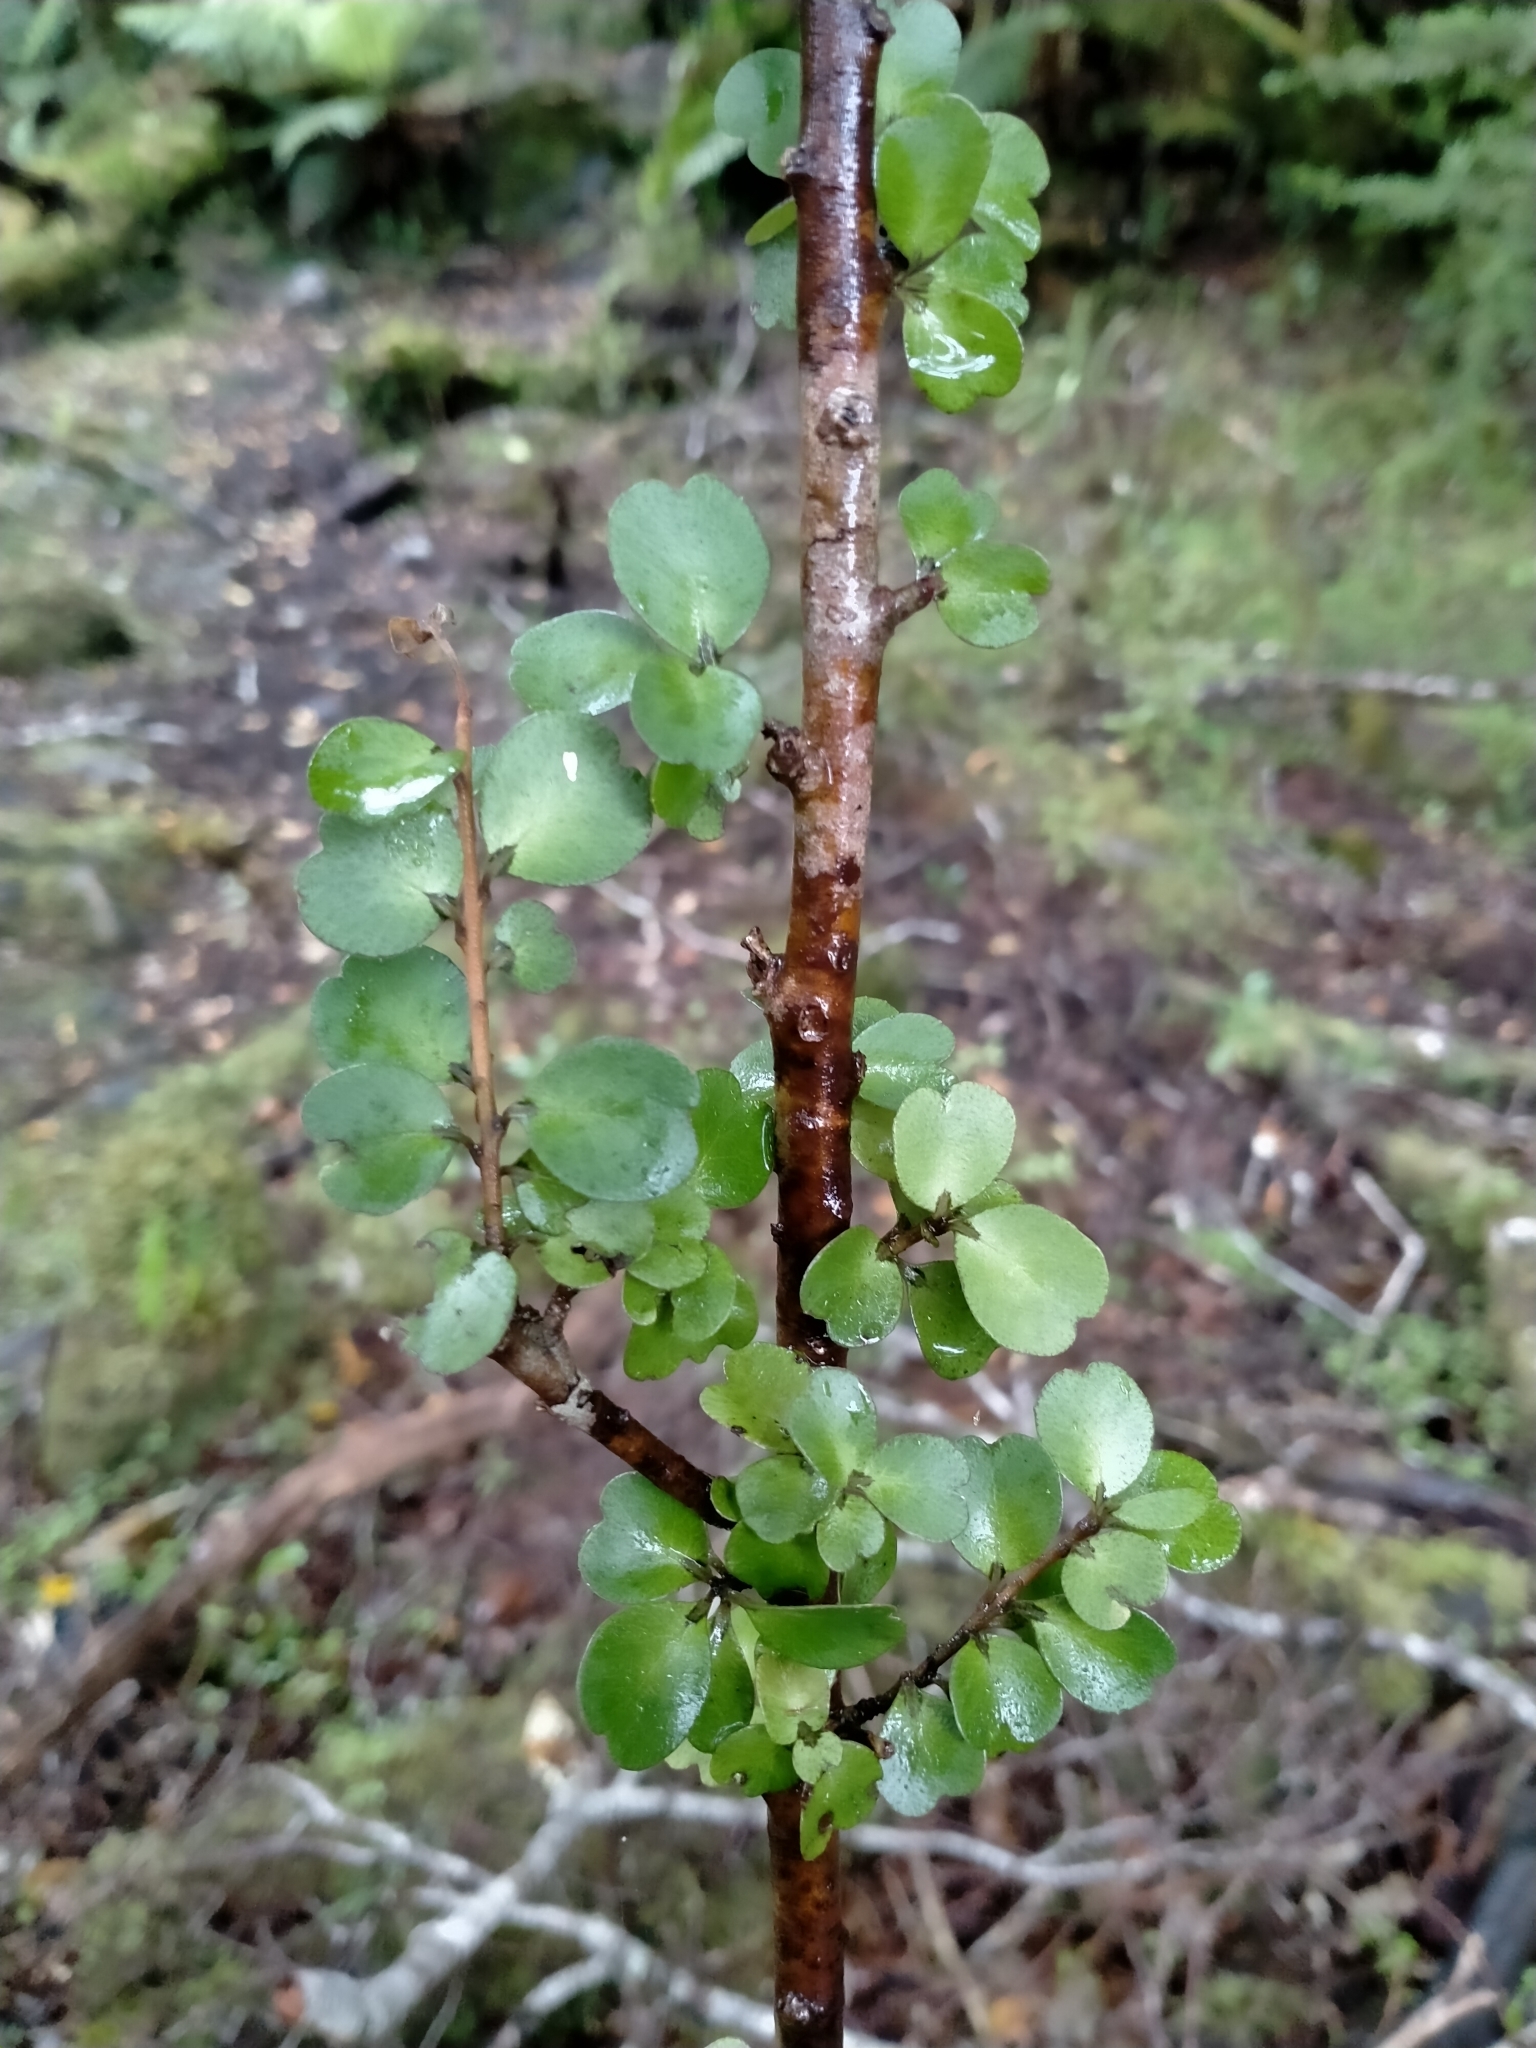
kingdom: Plantae
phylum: Tracheophyta
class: Magnoliopsida
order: Ericales
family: Primulaceae
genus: Myrsine
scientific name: Myrsine divaricata
